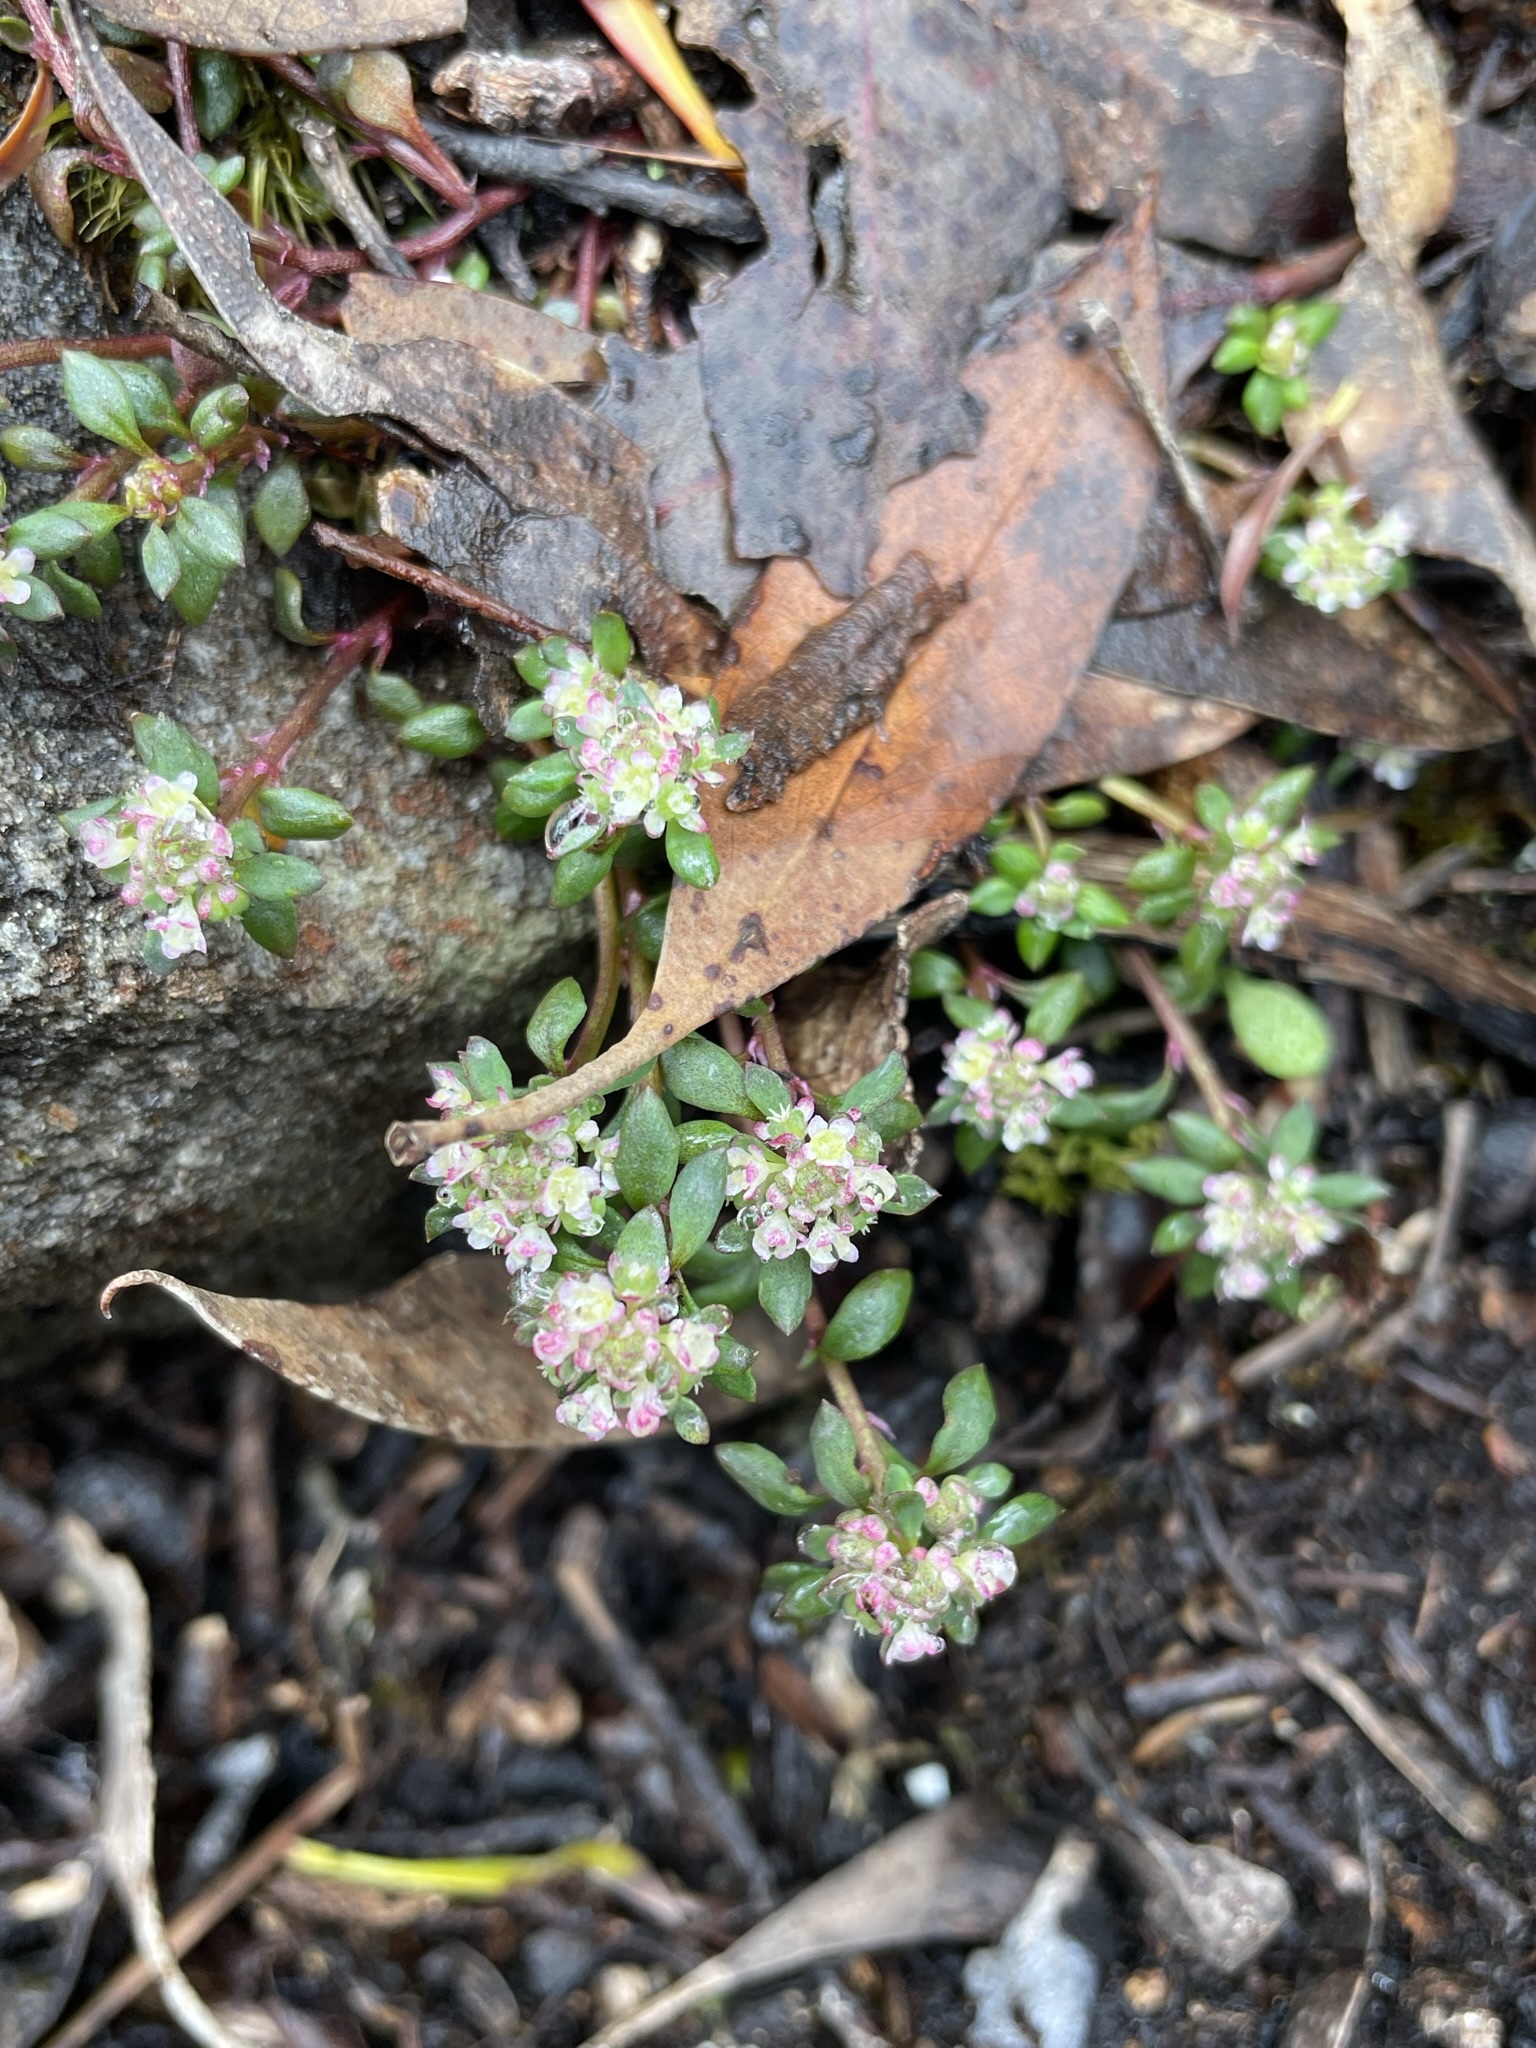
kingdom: Plantae
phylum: Tracheophyta
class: Magnoliopsida
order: Malpighiales
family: Phyllanthaceae
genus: Poranthera
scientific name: Poranthera microphylla
